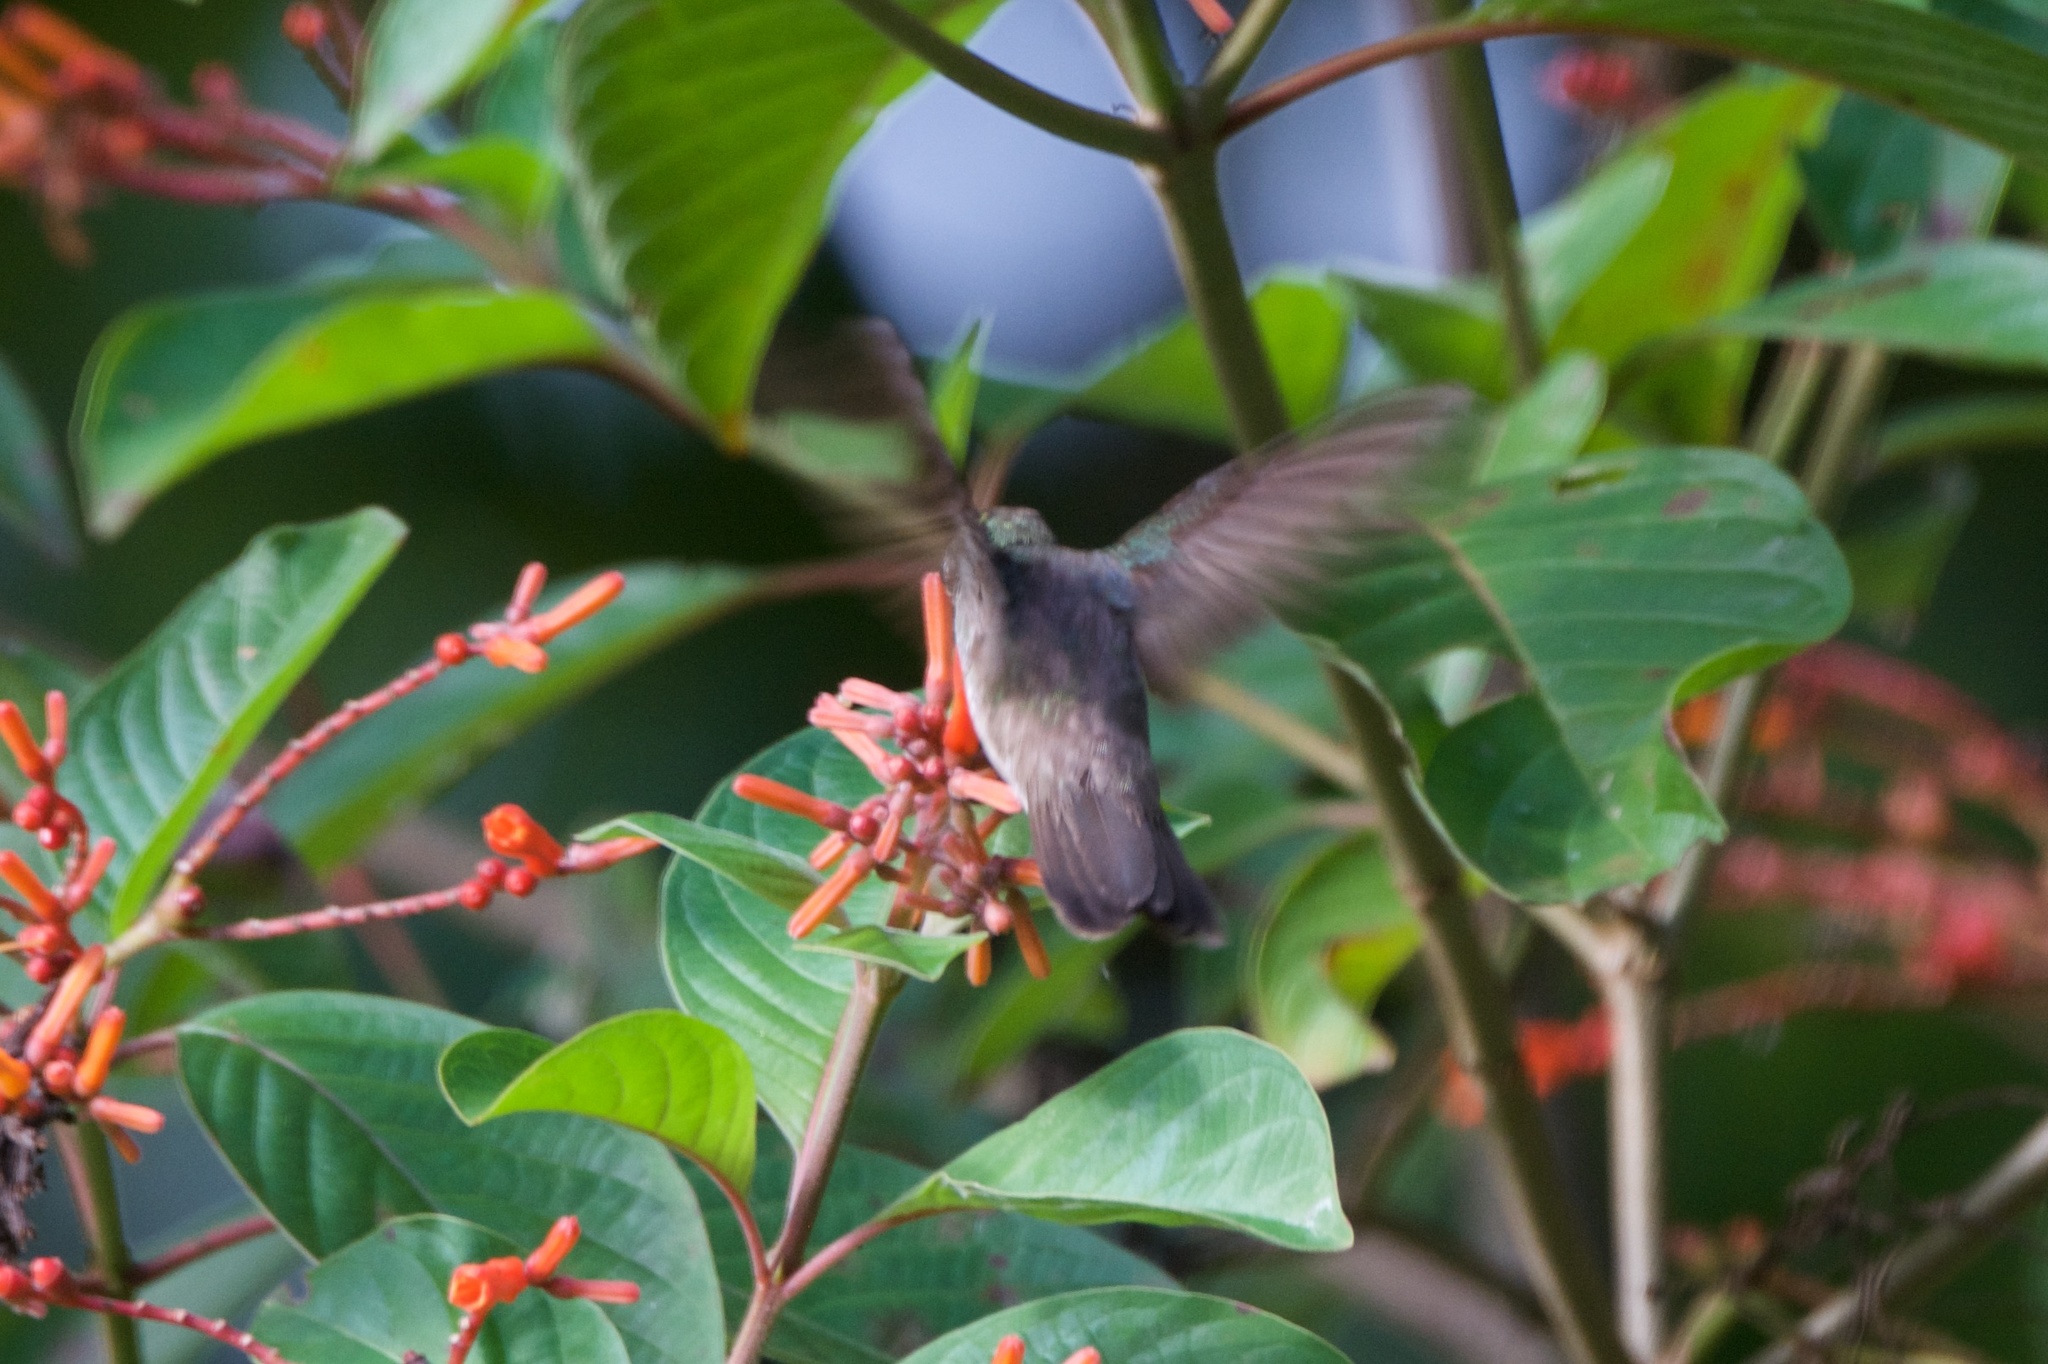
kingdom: Animalia
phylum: Chordata
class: Aves
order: Apodiformes
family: Trochilidae
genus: Chlorestes
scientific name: Chlorestes candida
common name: White-bellied emerald
